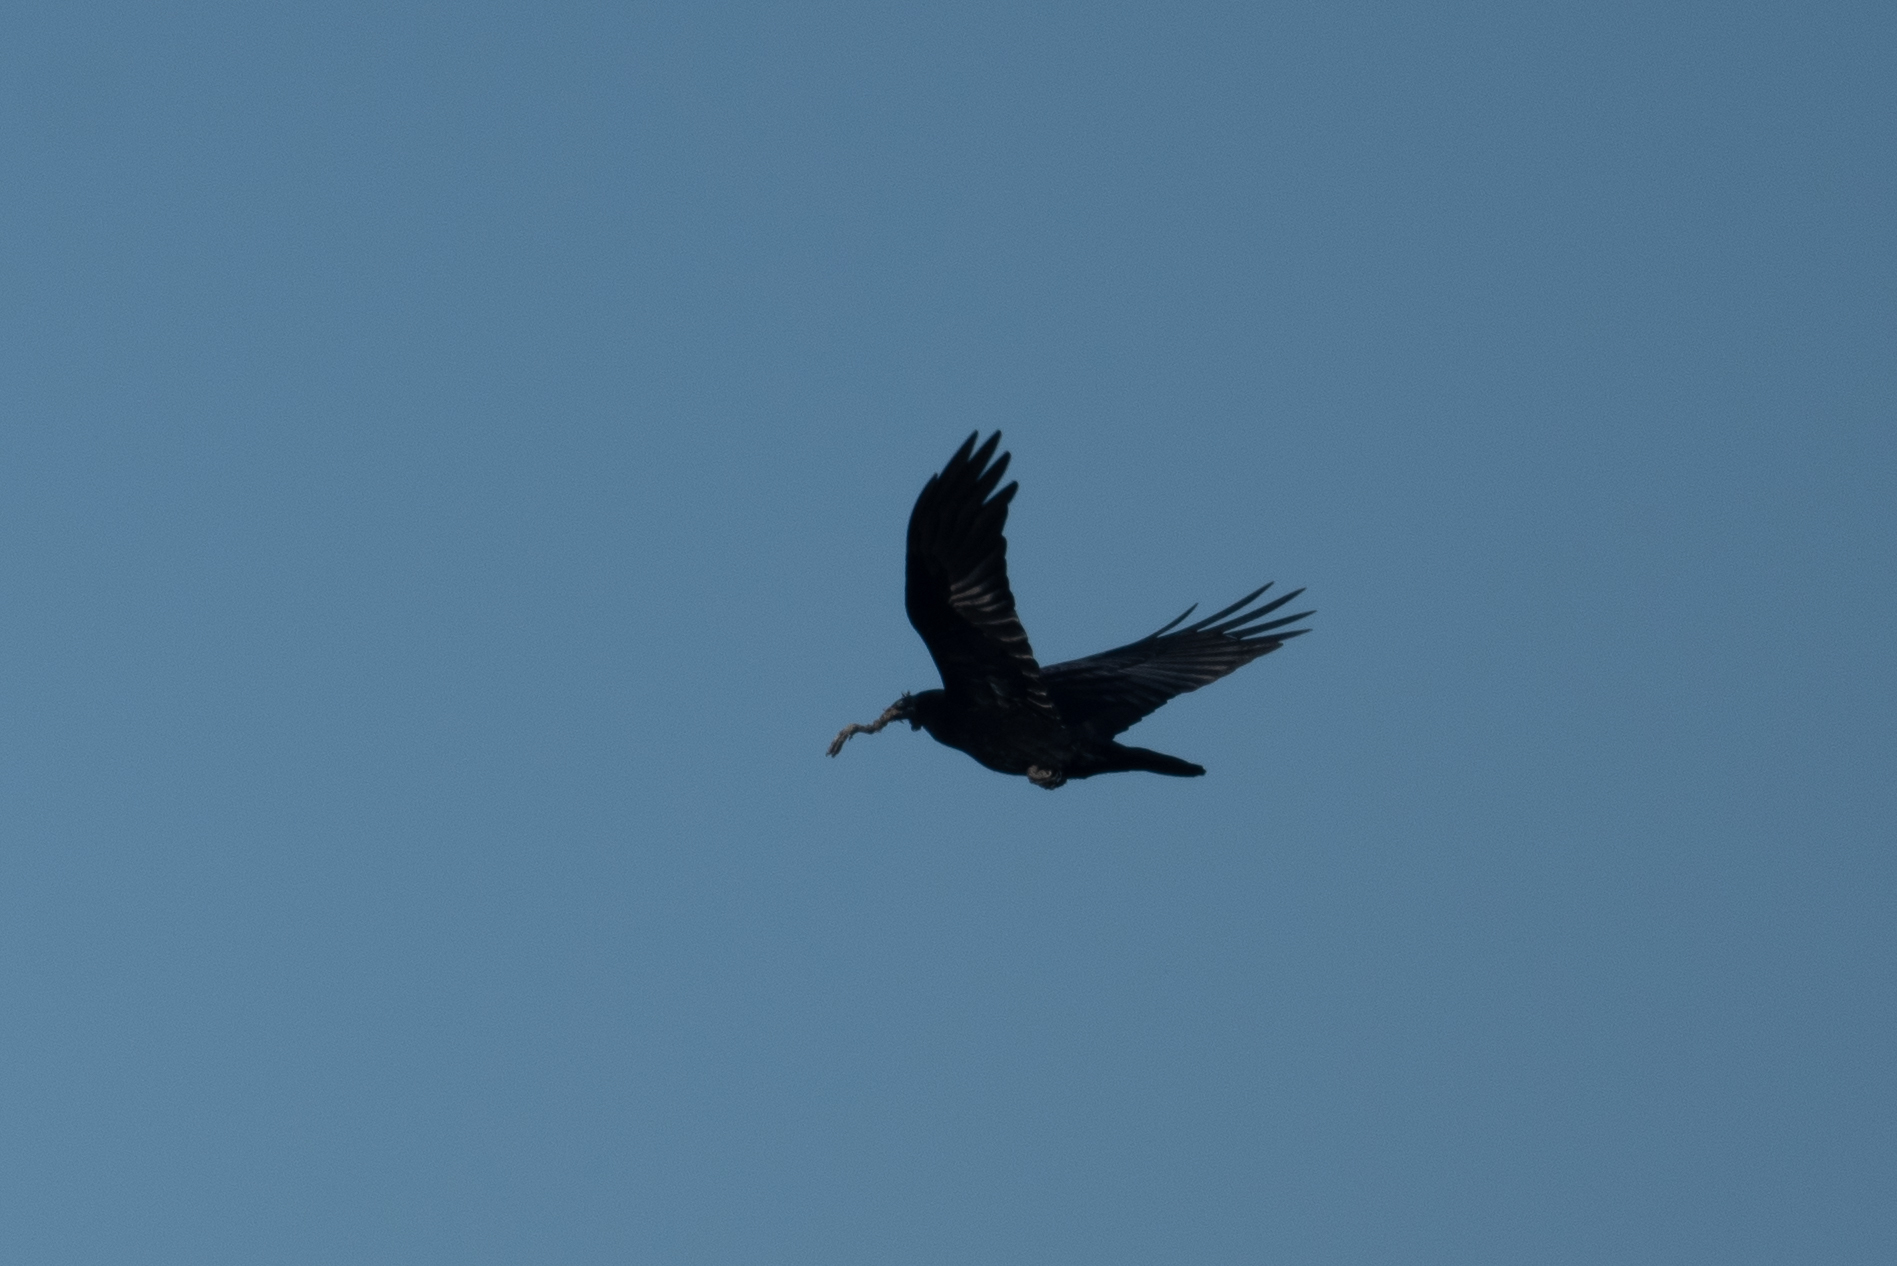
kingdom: Animalia
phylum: Chordata
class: Aves
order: Passeriformes
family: Corvidae
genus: Corvus
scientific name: Corvus corax
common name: Common raven
